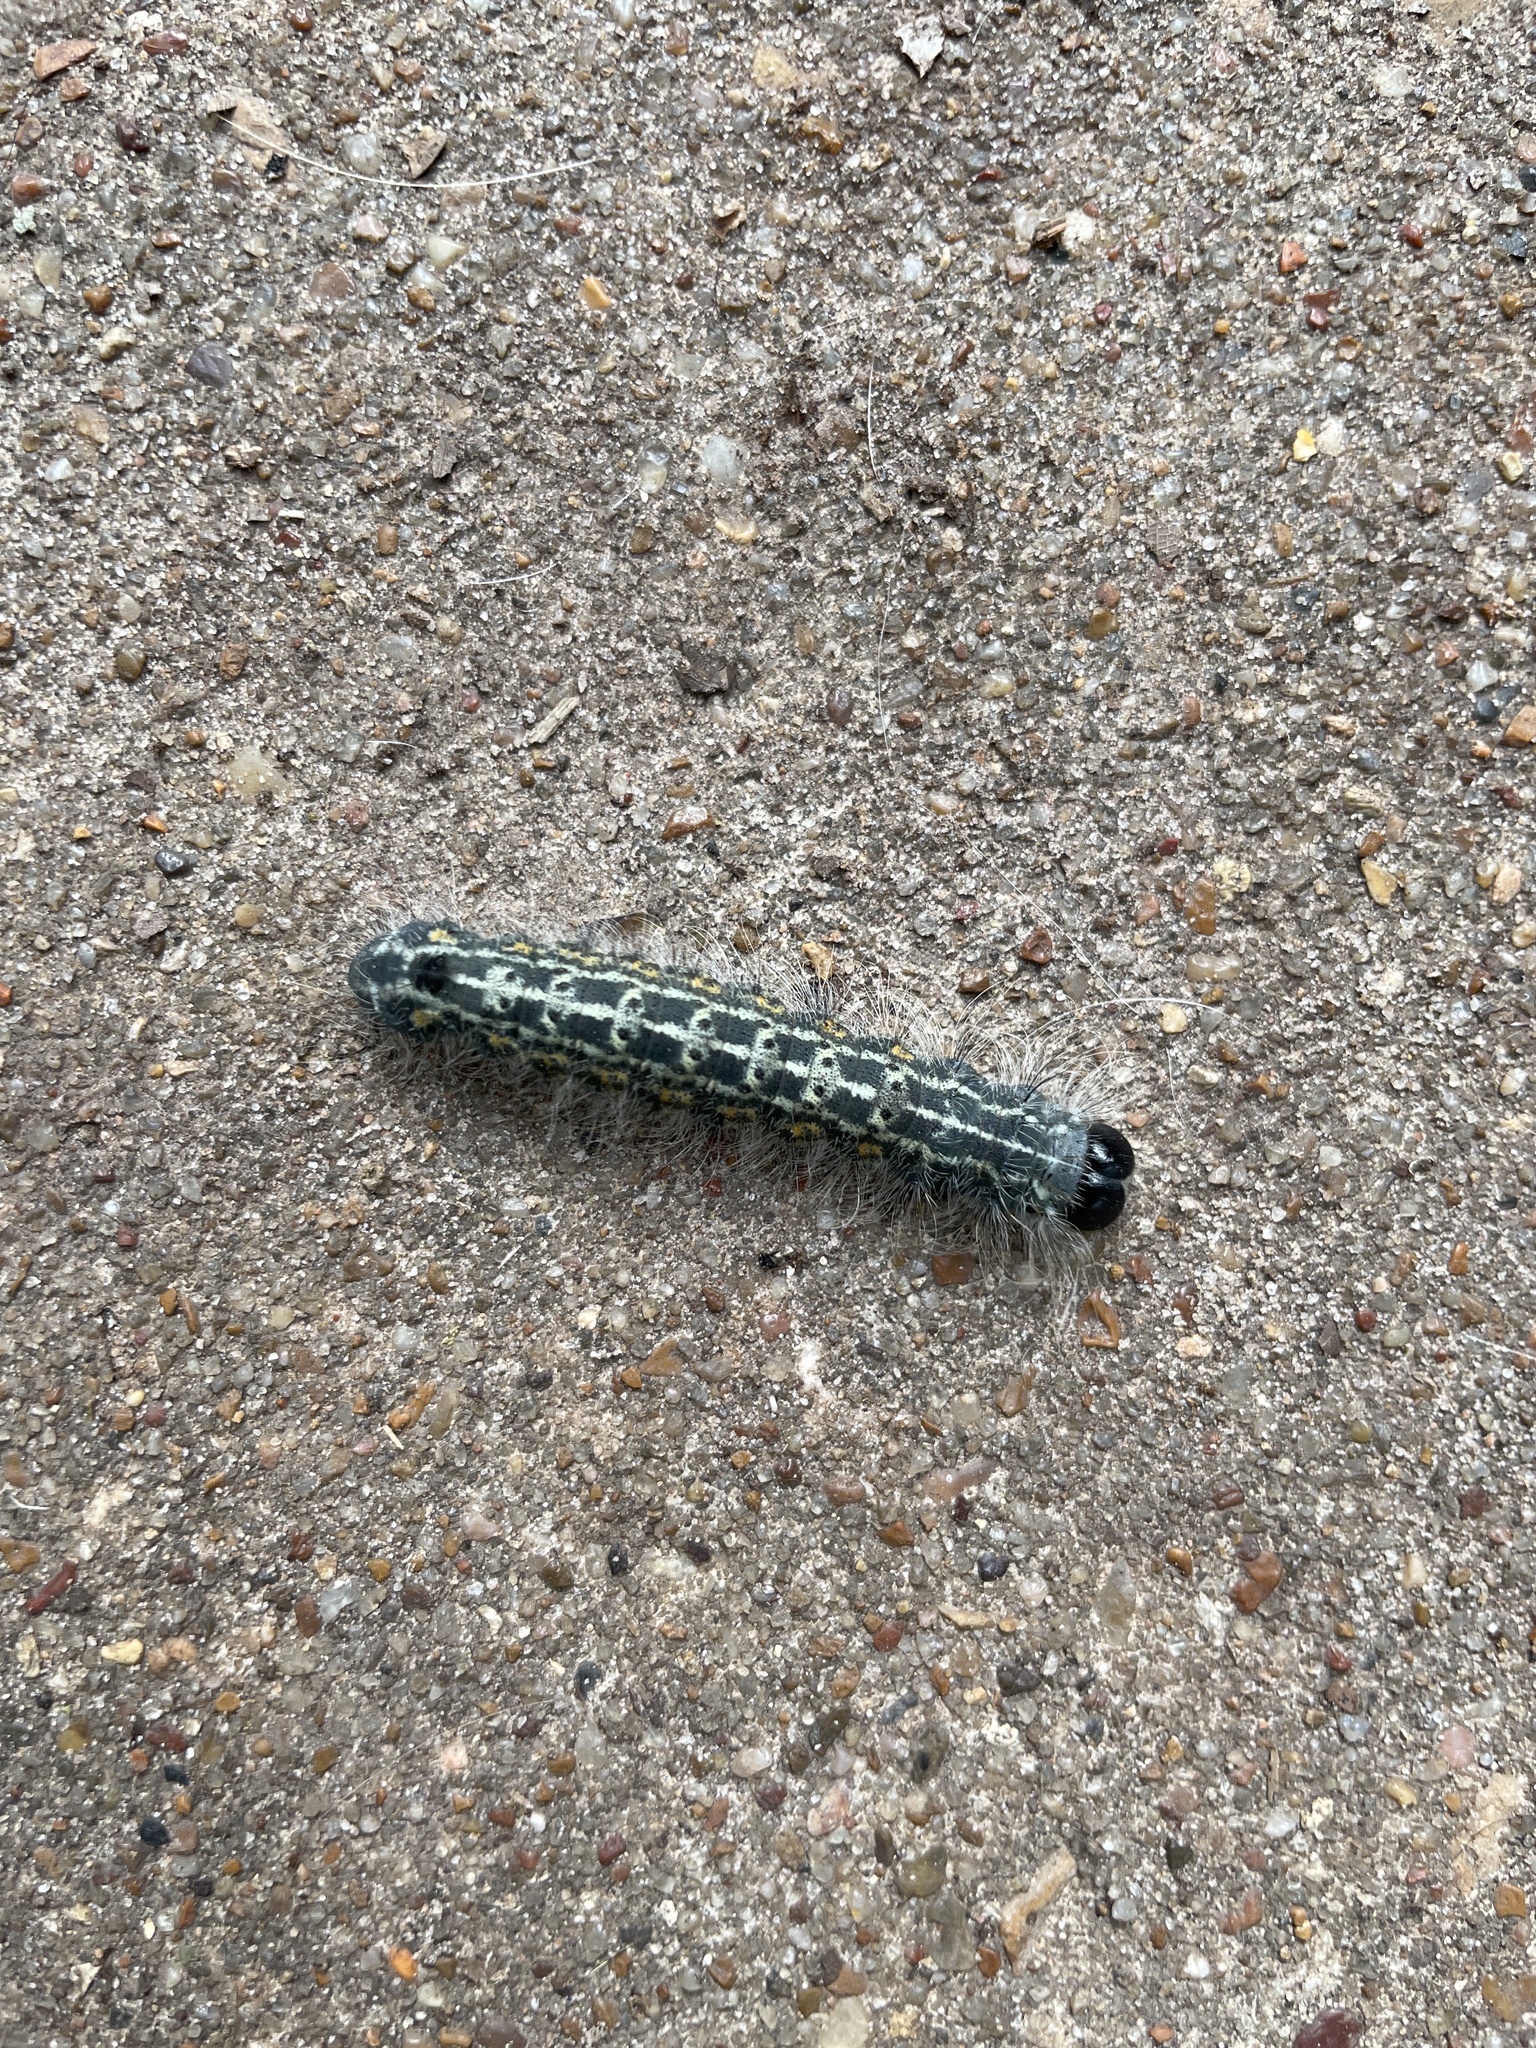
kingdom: Animalia
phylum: Arthropoda
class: Insecta
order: Lepidoptera
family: Noctuidae
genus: Acronicta
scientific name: Acronicta lobeliae
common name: Greater oak dagger
